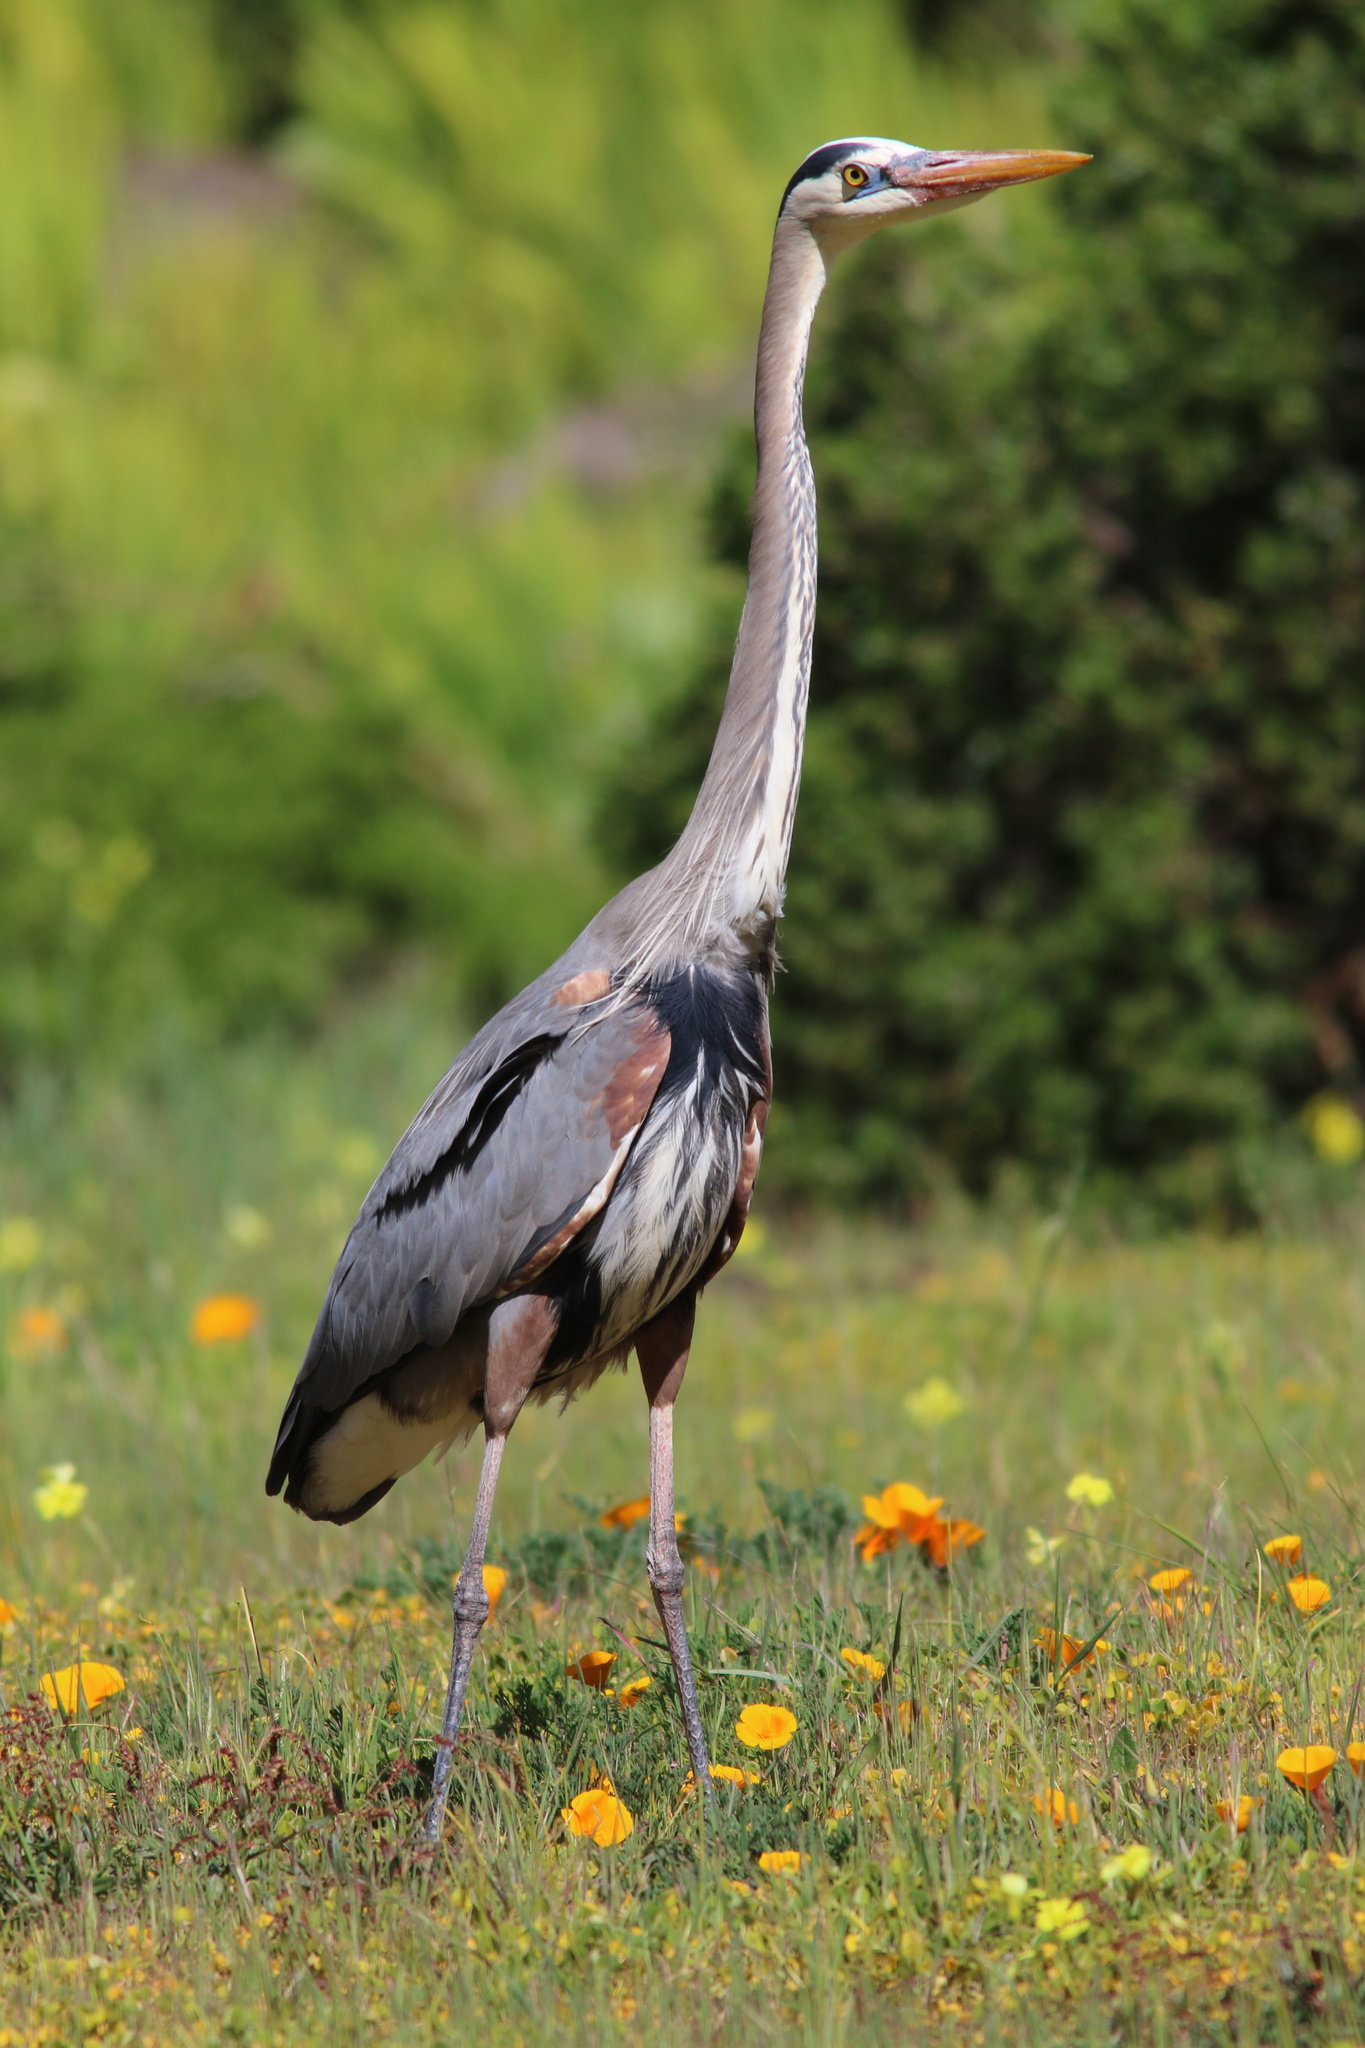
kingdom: Animalia
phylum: Chordata
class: Aves
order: Pelecaniformes
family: Ardeidae
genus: Ardea
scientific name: Ardea herodias
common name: Great blue heron
